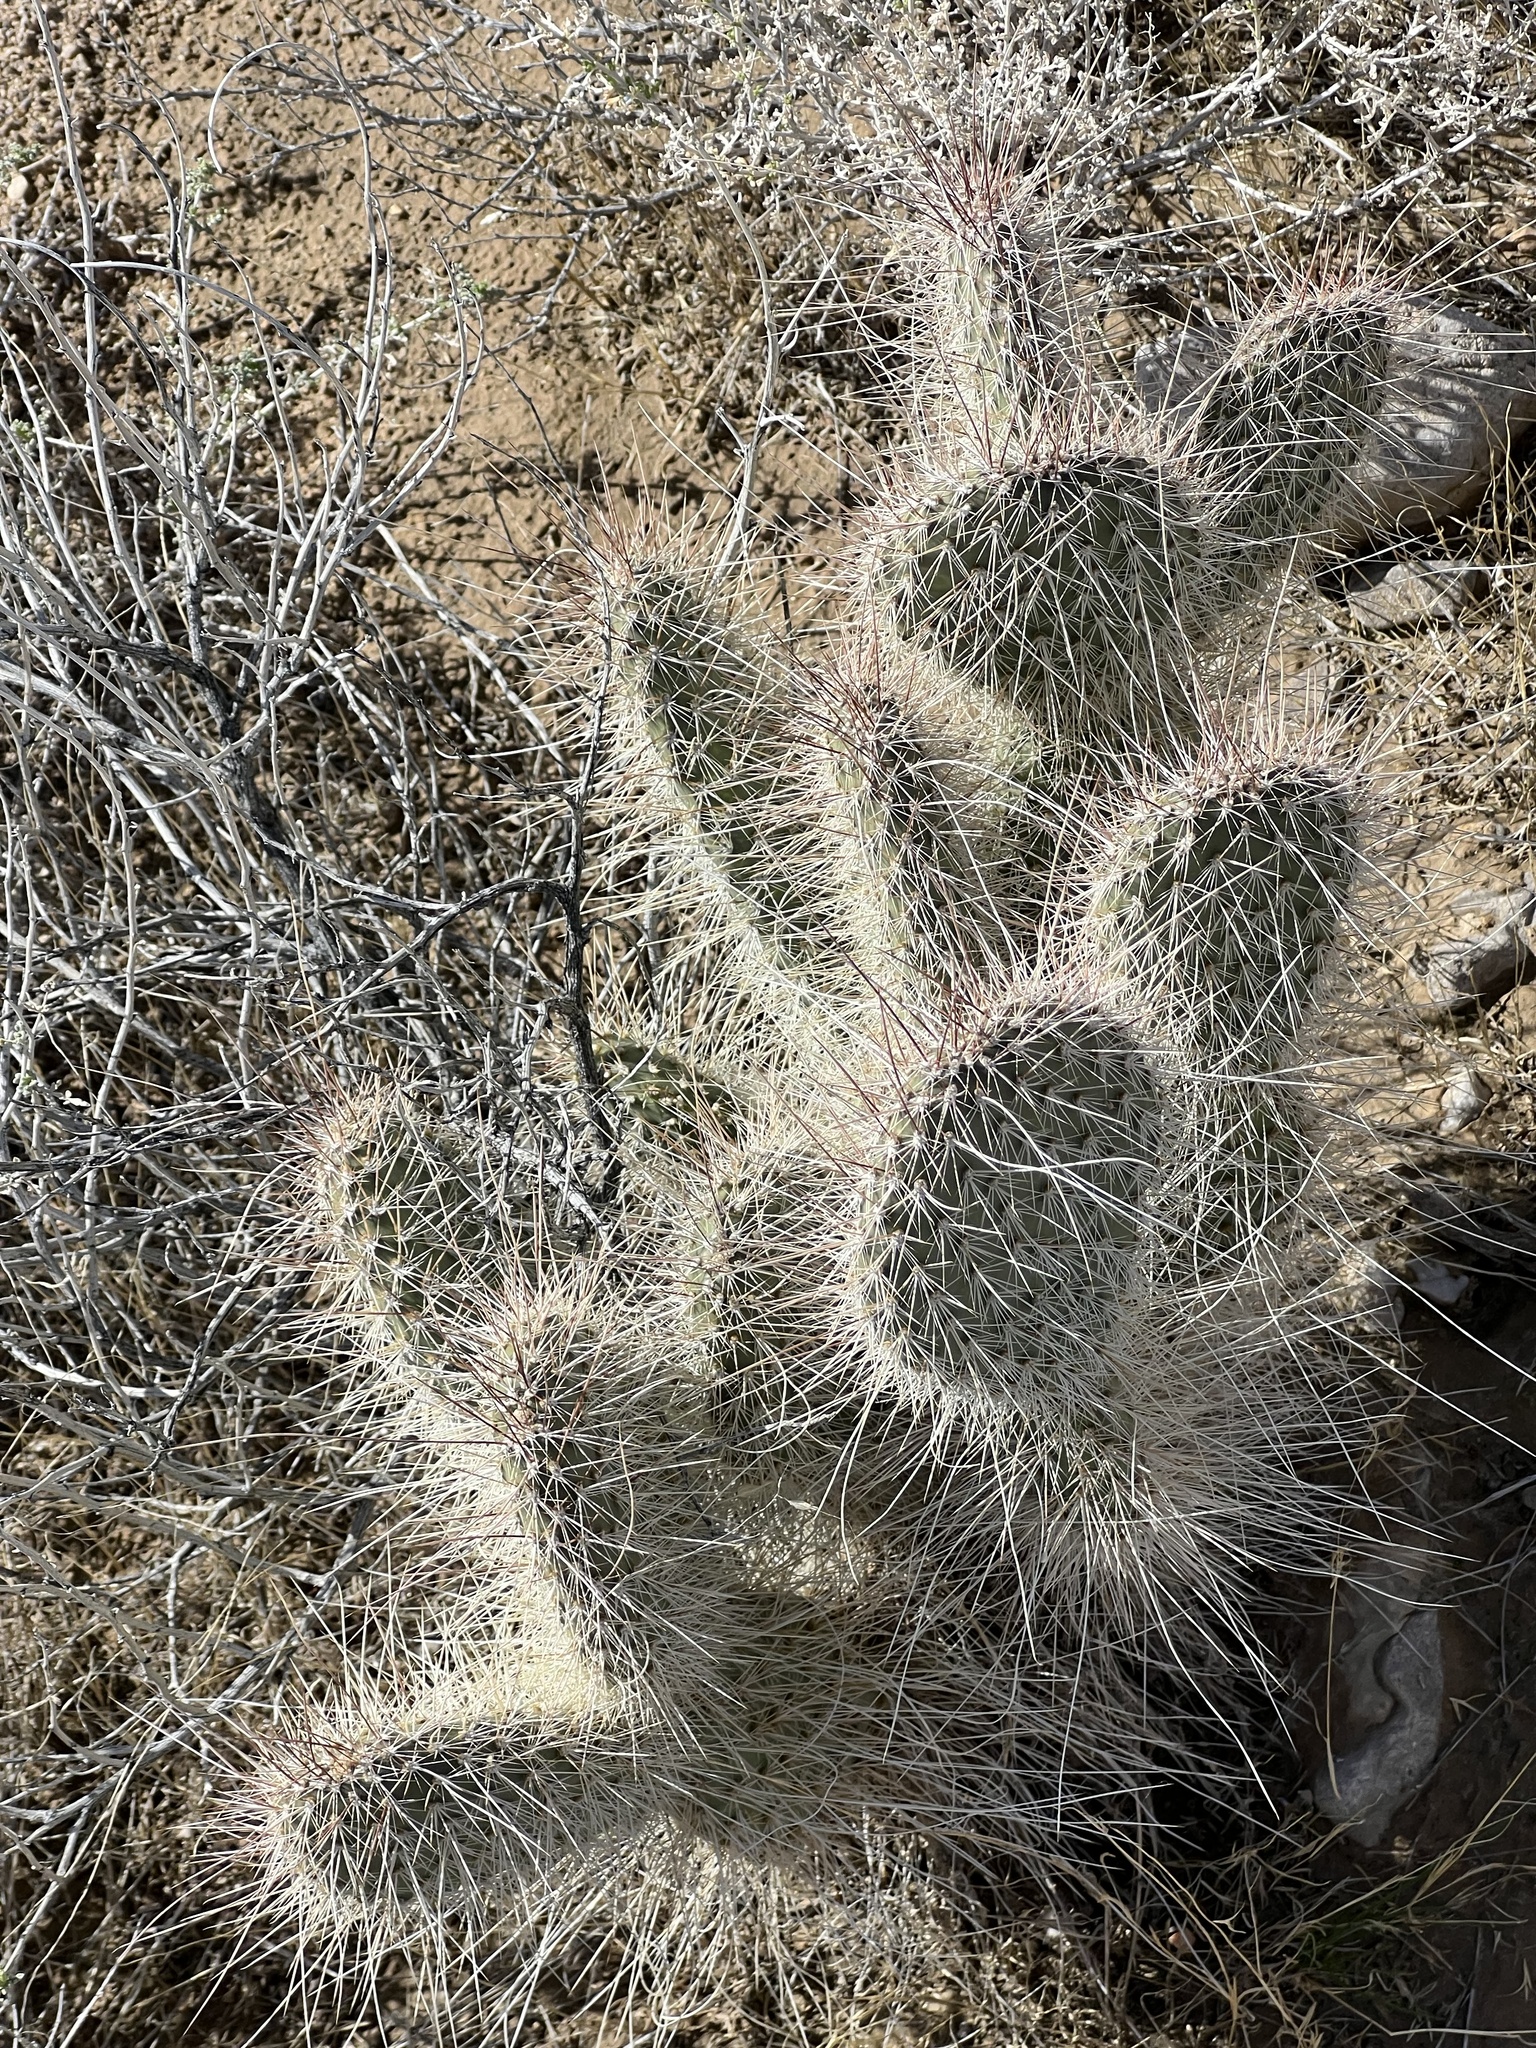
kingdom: Plantae
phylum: Tracheophyta
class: Magnoliopsida
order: Caryophyllales
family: Cactaceae
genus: Opuntia
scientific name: Opuntia polyacantha
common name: Plains prickly-pear
